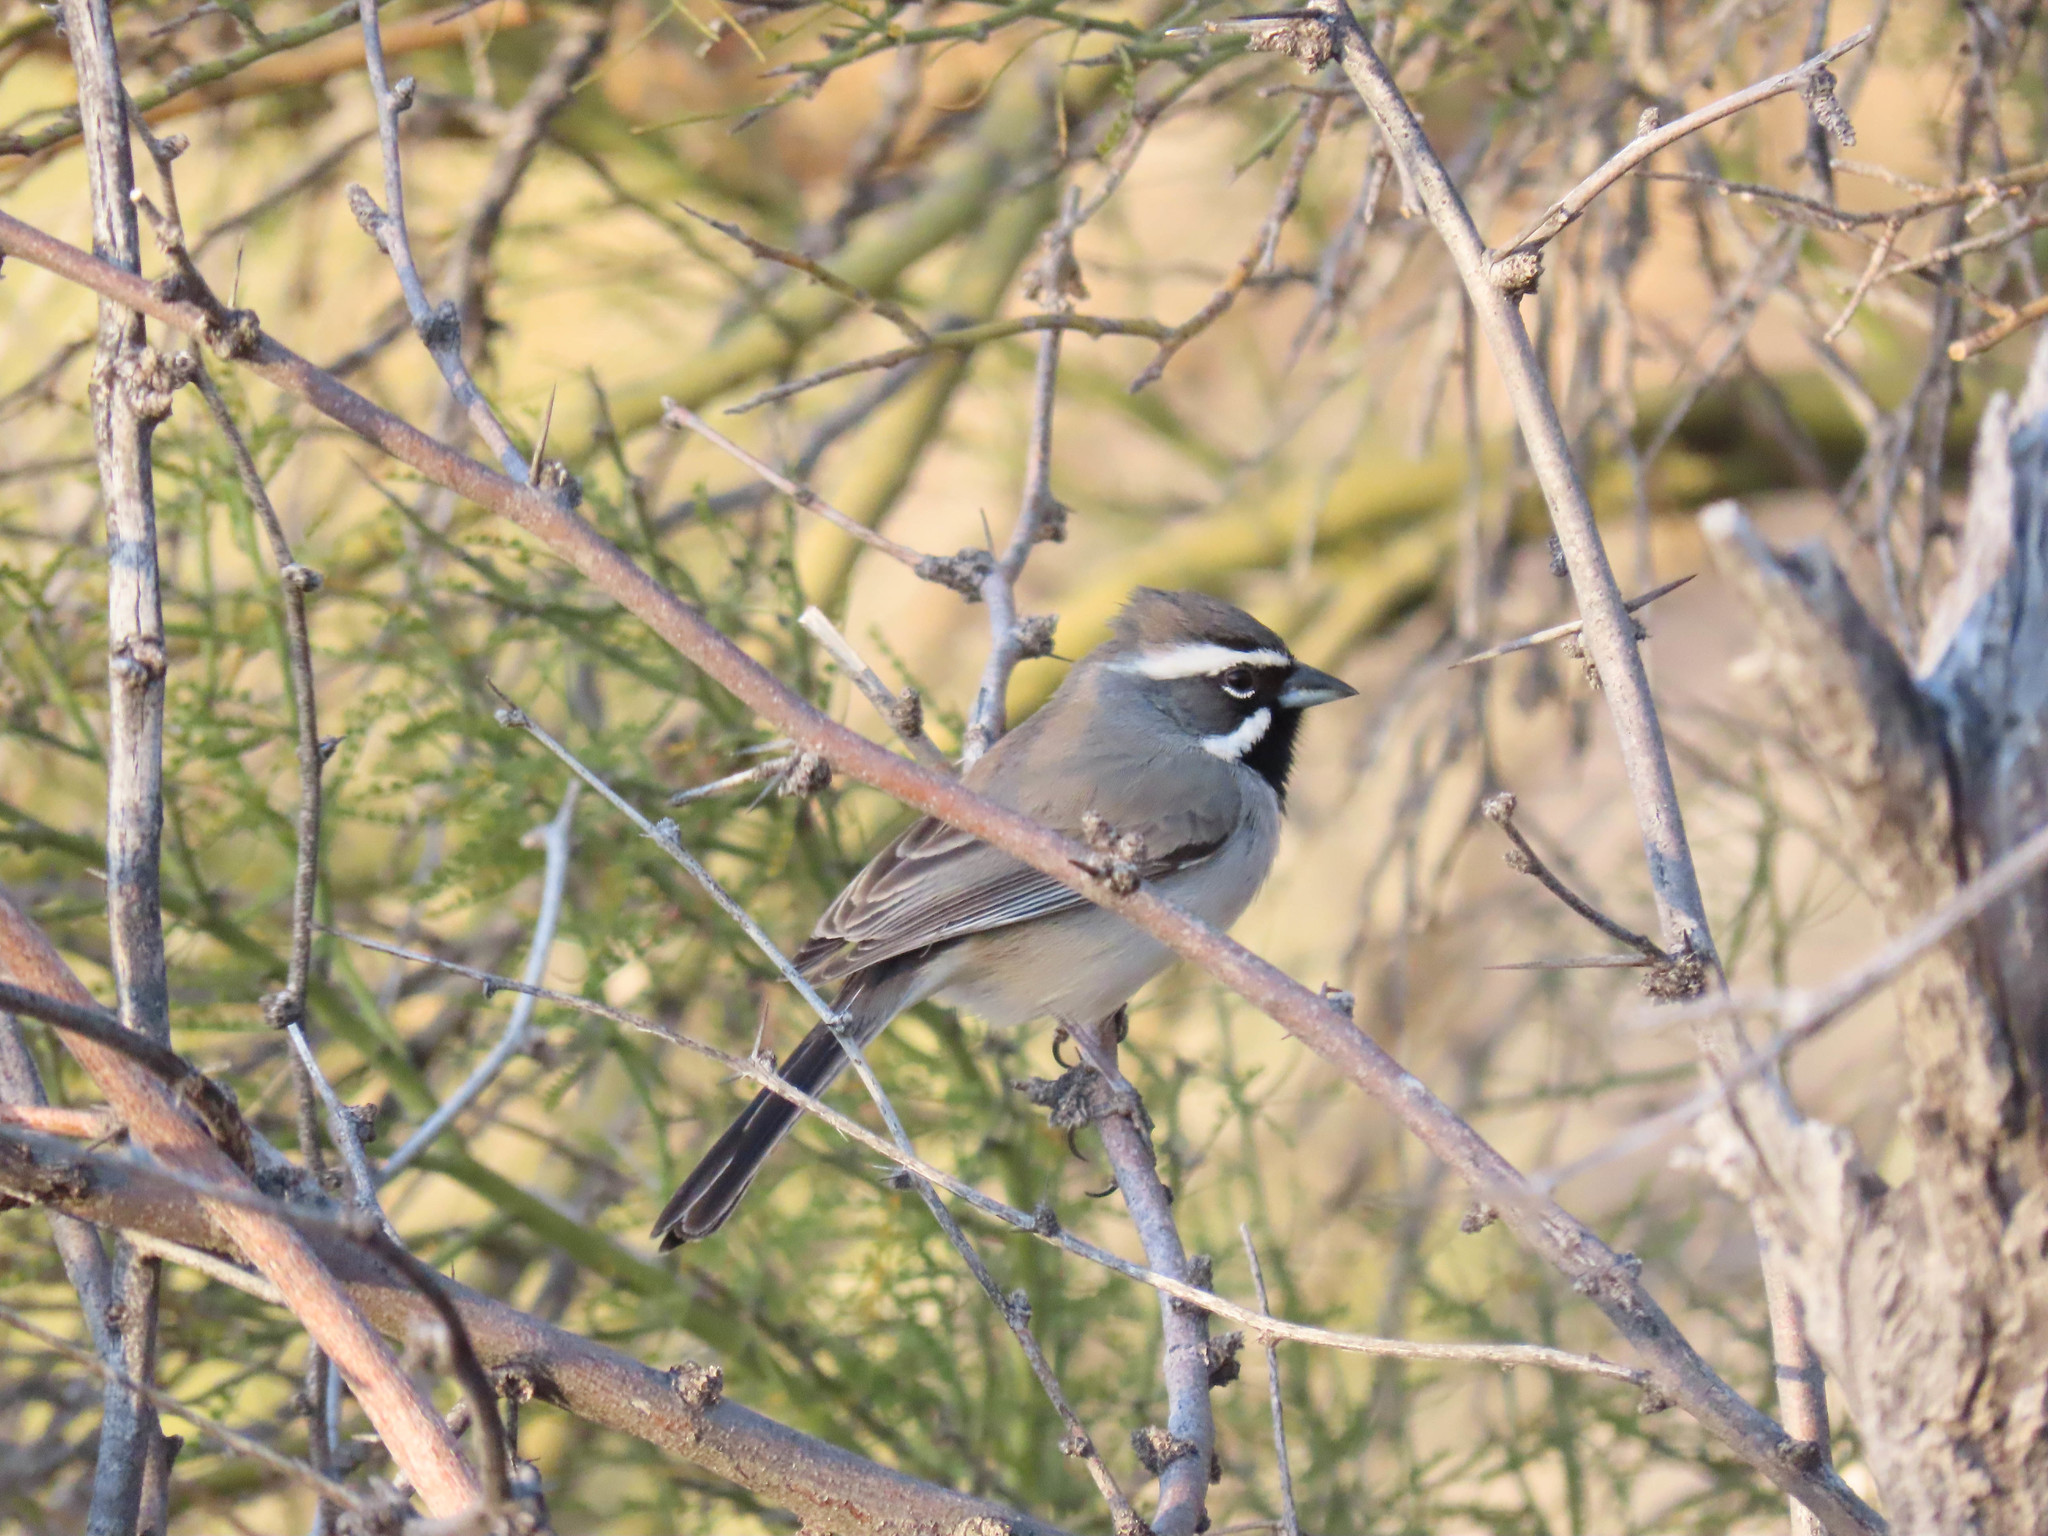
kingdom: Animalia
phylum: Chordata
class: Aves
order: Passeriformes
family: Passerellidae
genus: Amphispiza
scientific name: Amphispiza bilineata
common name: Black-throated sparrow
